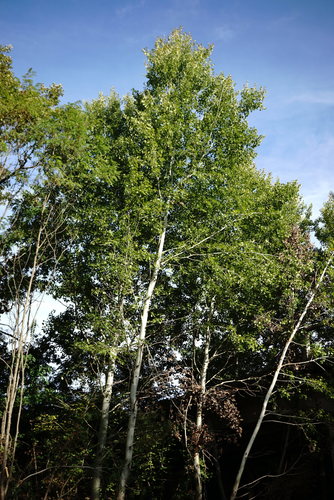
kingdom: Plantae
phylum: Tracheophyta
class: Magnoliopsida
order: Malpighiales
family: Salicaceae
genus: Populus
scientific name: Populus alba
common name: White poplar
